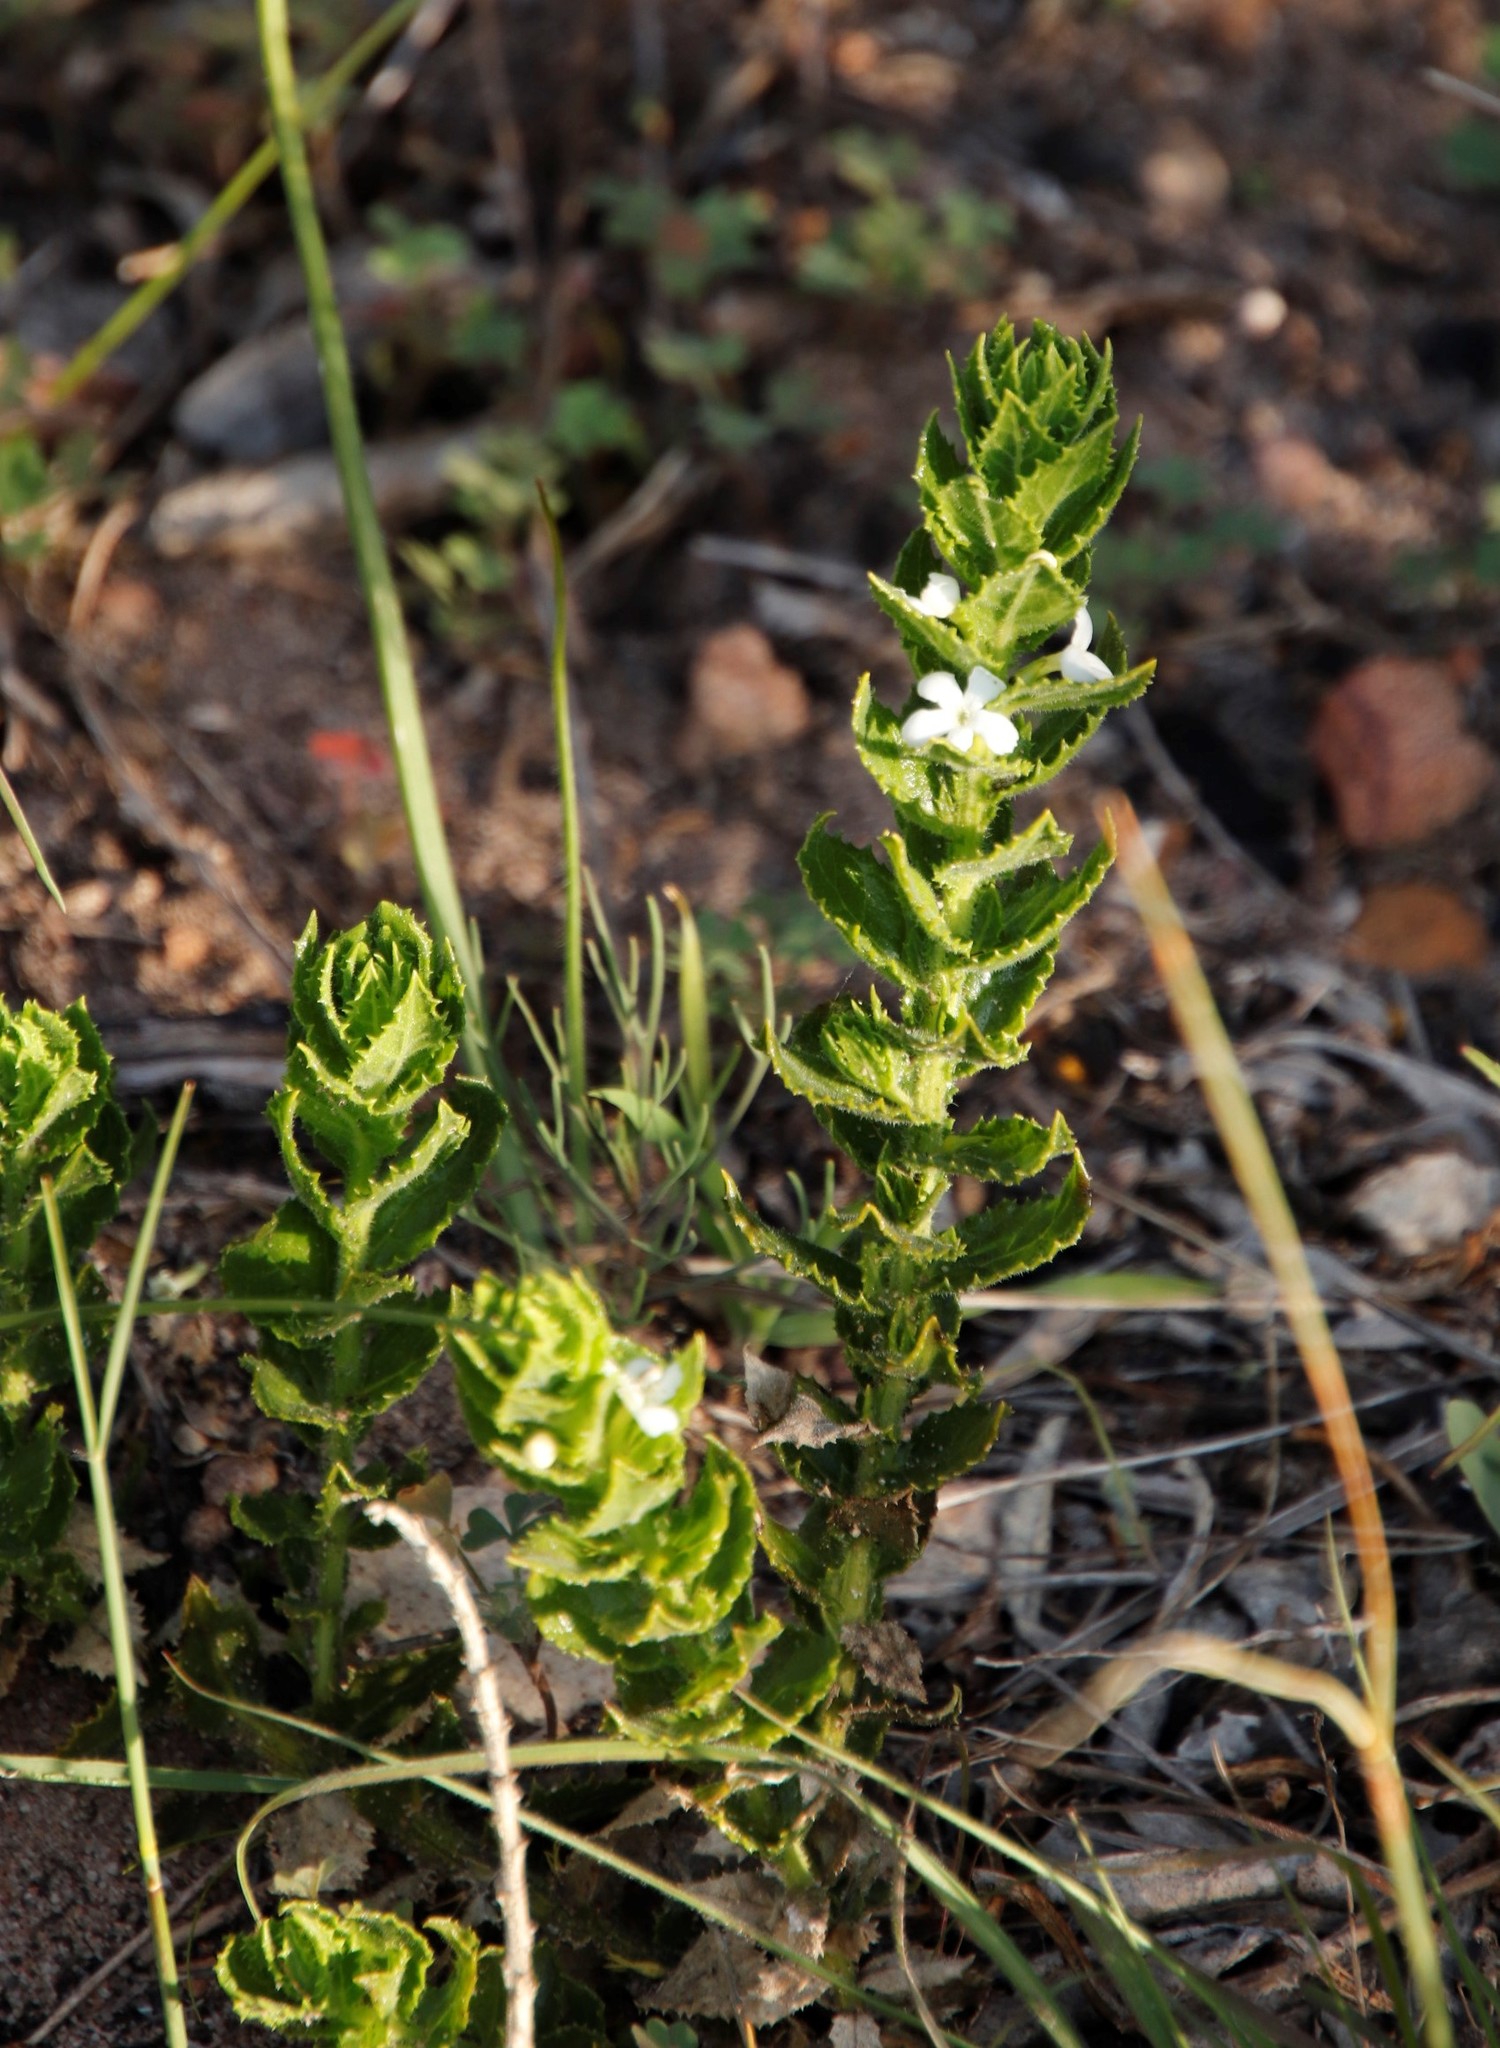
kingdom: Plantae
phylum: Tracheophyta
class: Magnoliopsida
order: Lamiales
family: Scrophulariaceae
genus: Oftia
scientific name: Oftia africana
